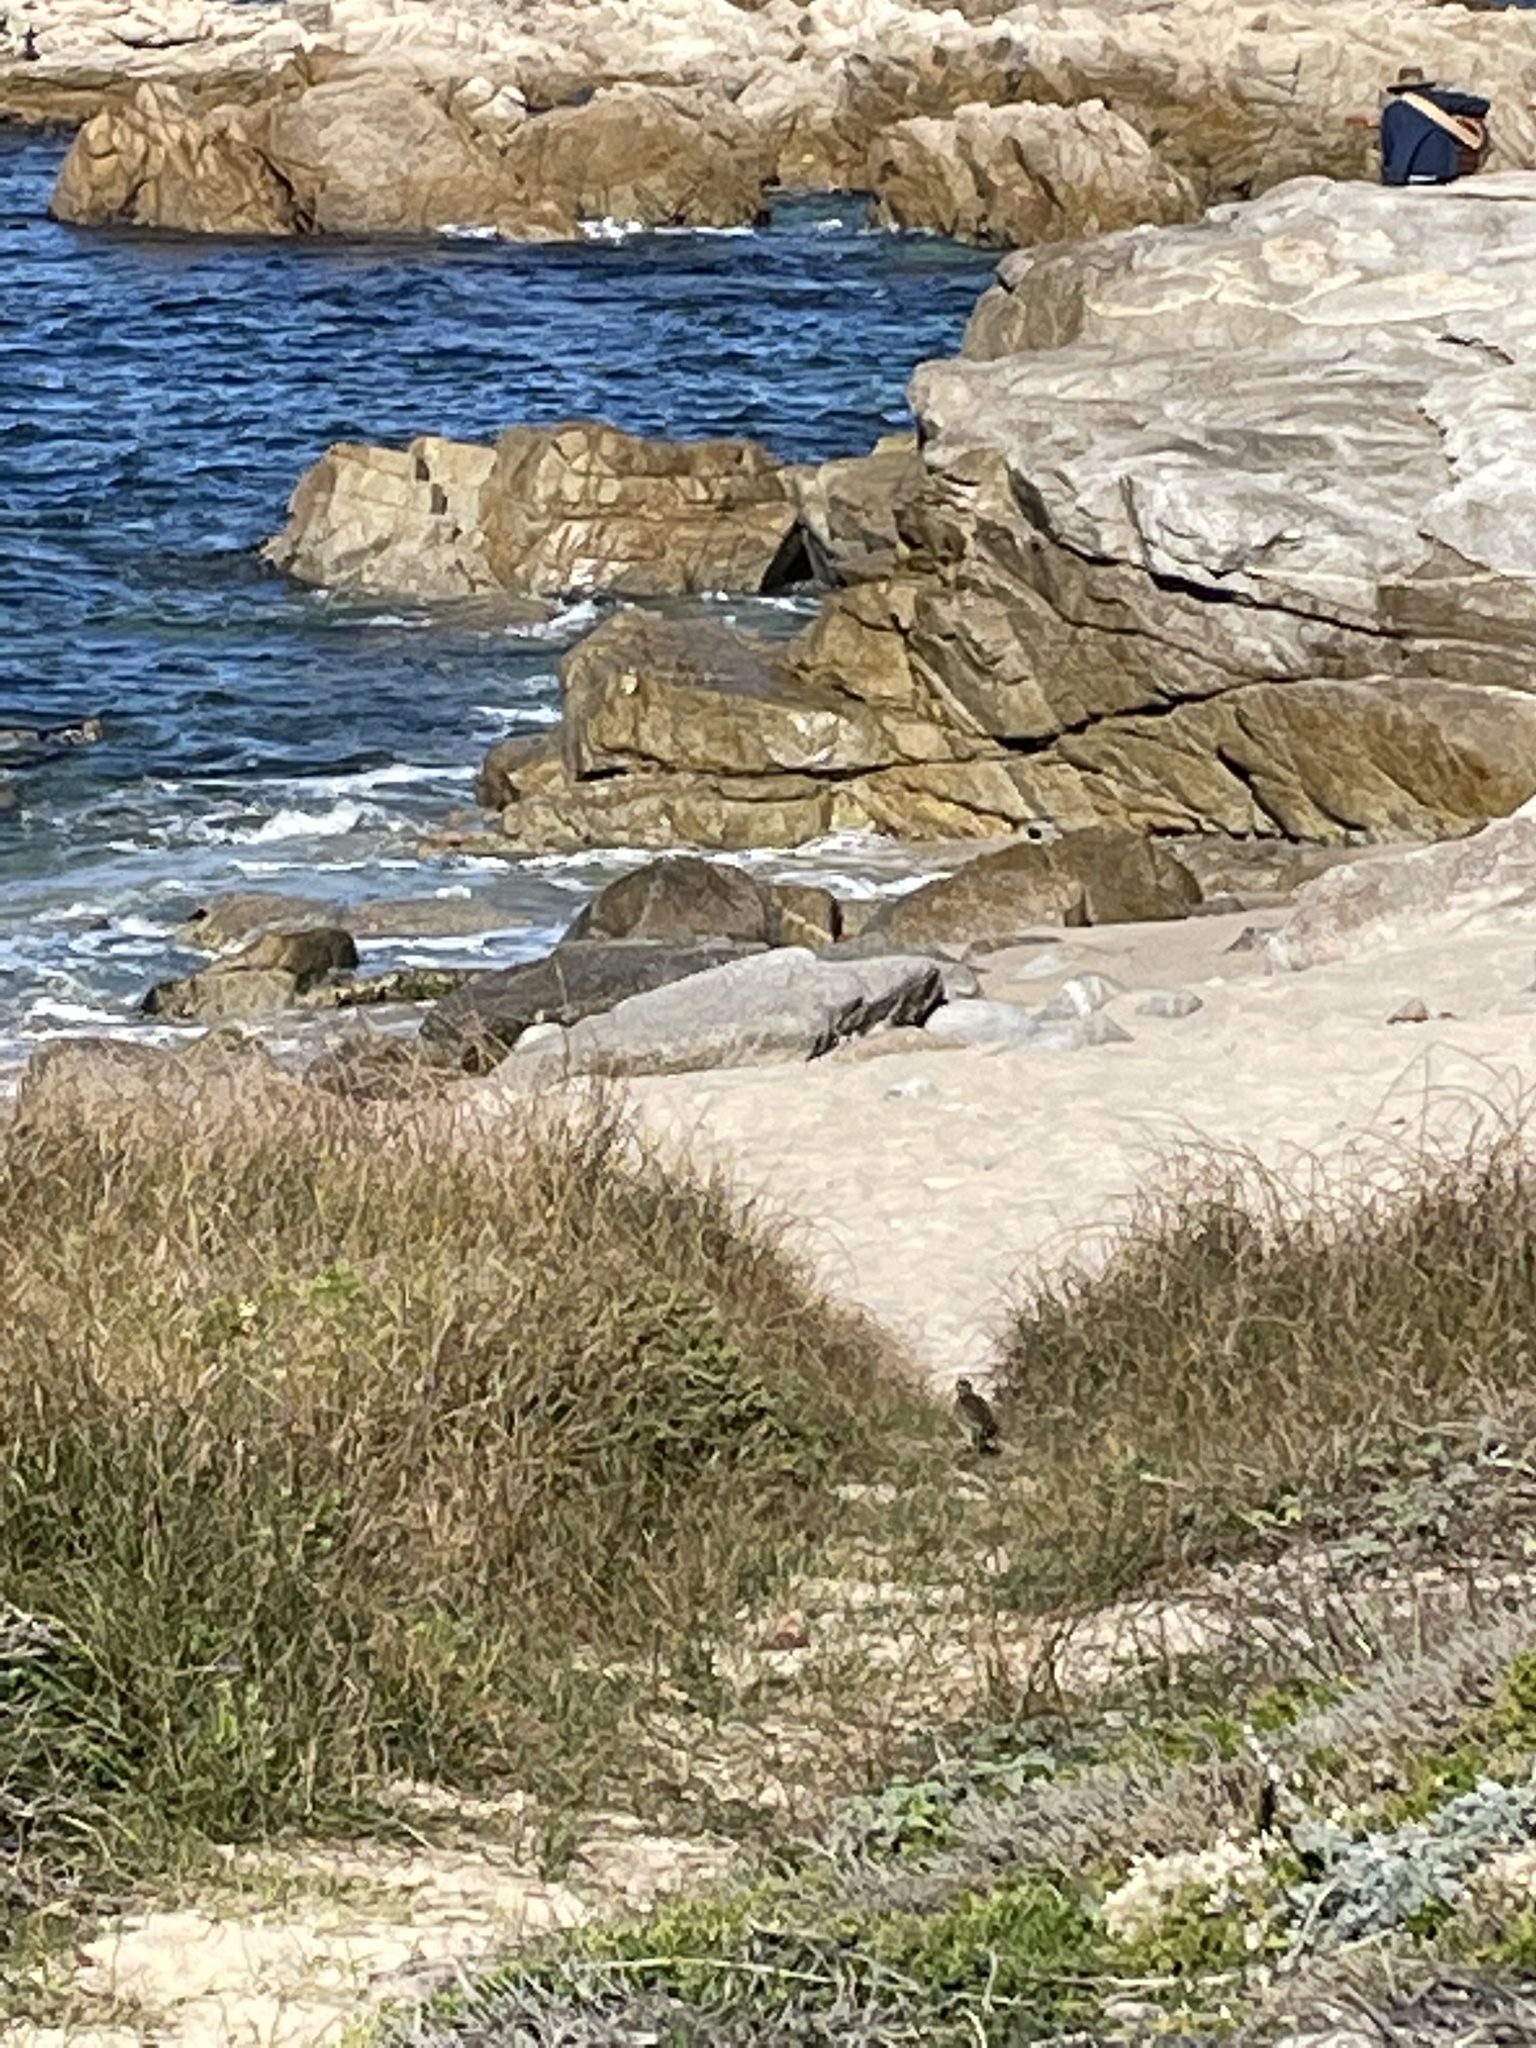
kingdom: Animalia
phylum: Chordata
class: Aves
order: Passeriformes
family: Icteridae
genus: Sturnella
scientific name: Sturnella neglecta
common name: Western meadowlark
